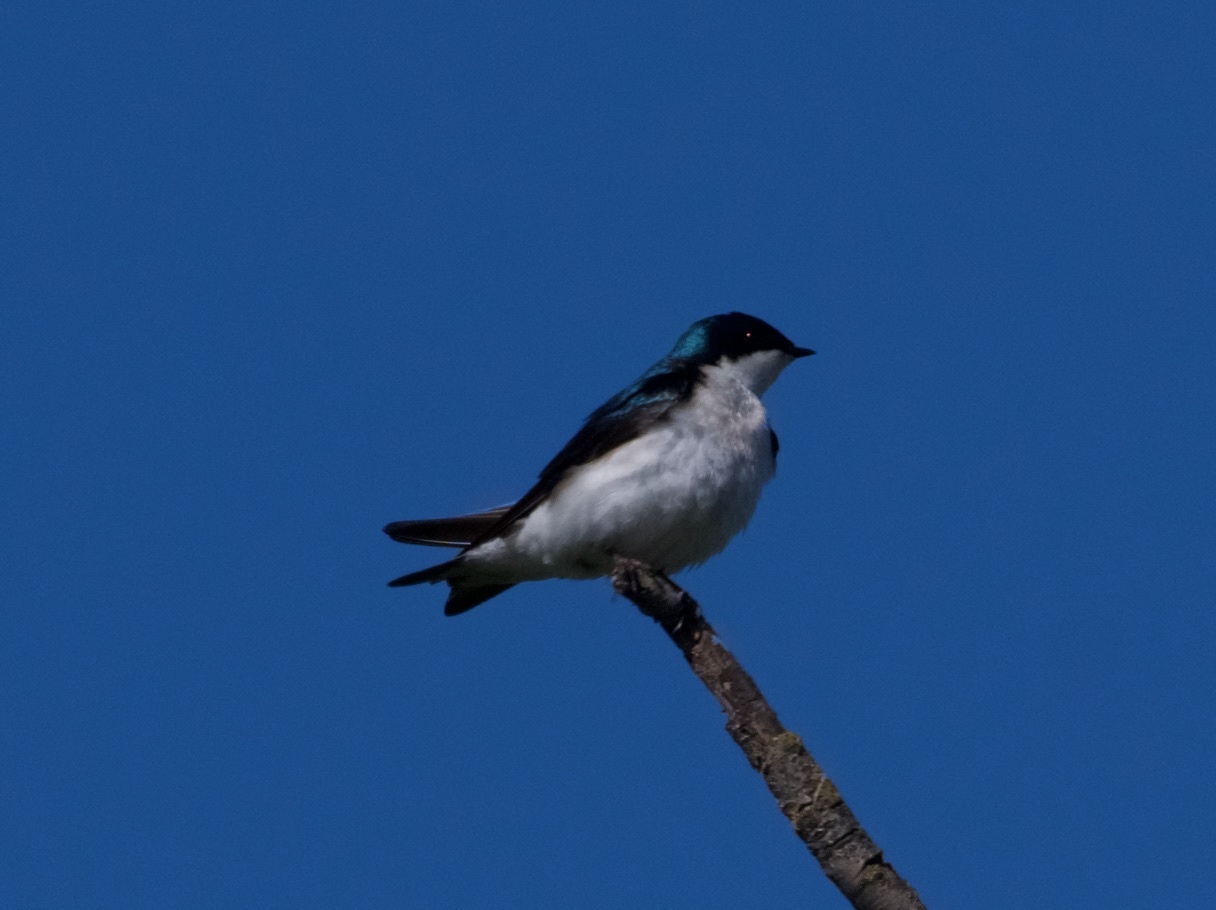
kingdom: Animalia
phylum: Chordata
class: Aves
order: Passeriformes
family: Hirundinidae
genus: Tachycineta
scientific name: Tachycineta bicolor
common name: Tree swallow
